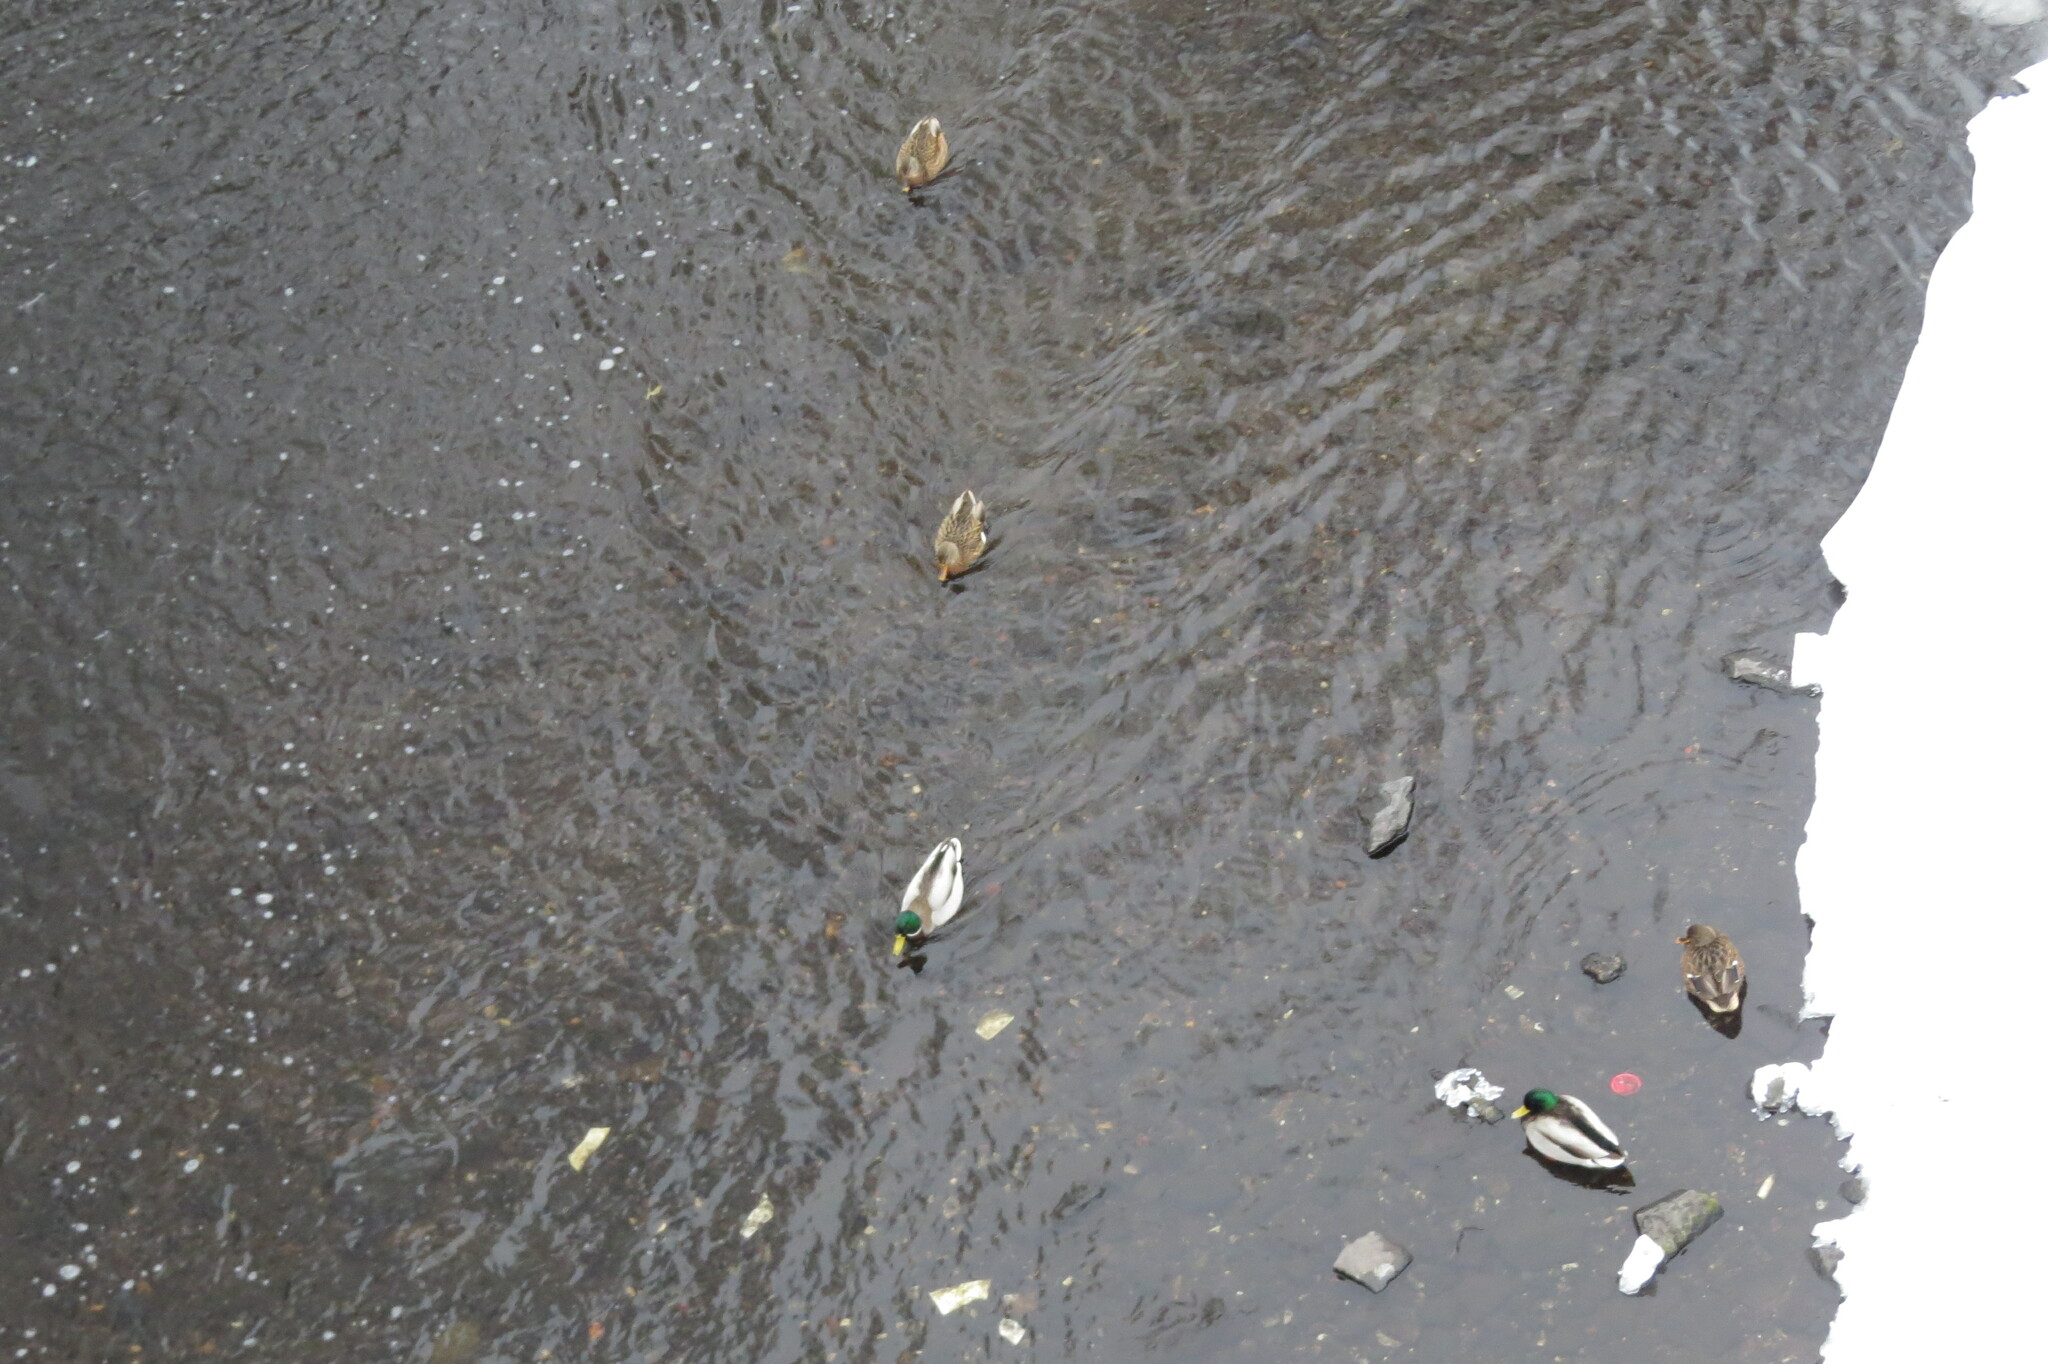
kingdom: Animalia
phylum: Chordata
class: Aves
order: Anseriformes
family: Anatidae
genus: Anas
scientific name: Anas platyrhynchos
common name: Mallard
